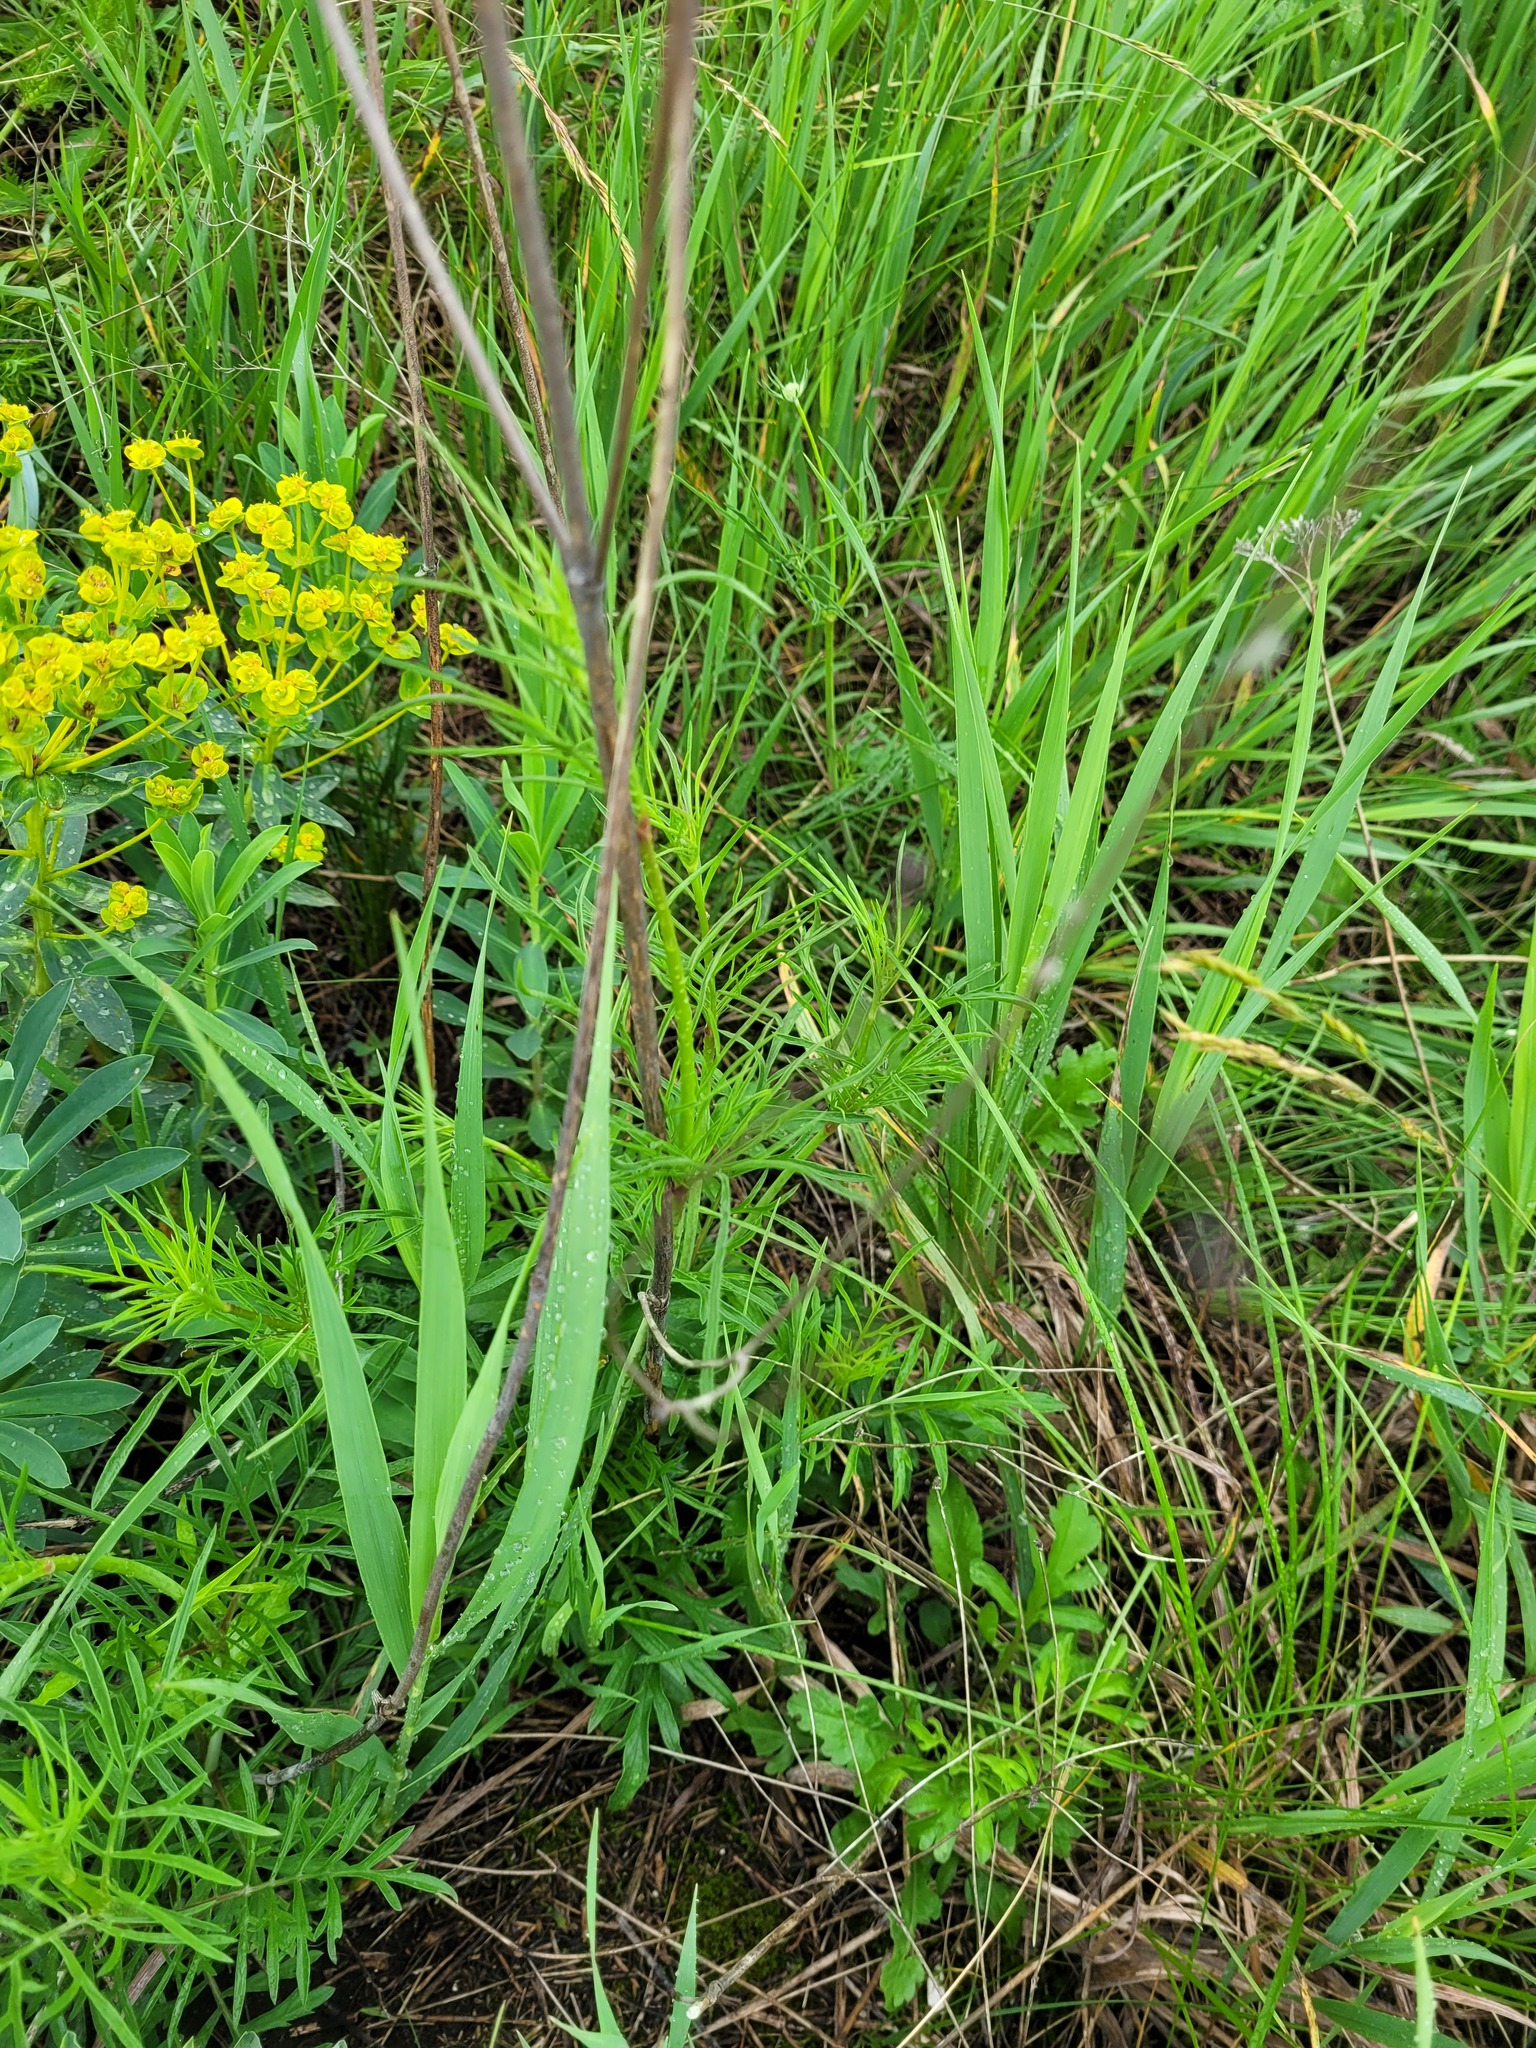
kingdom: Plantae
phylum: Tracheophyta
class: Magnoliopsida
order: Dipsacales
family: Caprifoliaceae
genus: Scabiosa
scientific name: Scabiosa ochroleuca
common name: Cream pincushions
